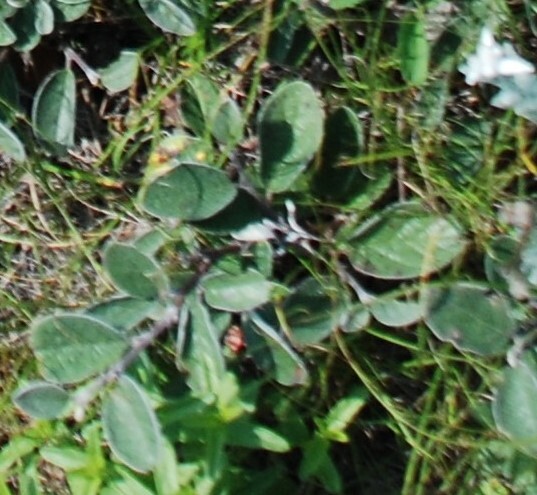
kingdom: Plantae
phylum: Tracheophyta
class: Magnoliopsida
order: Rosales
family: Rosaceae
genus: Cotoneaster
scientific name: Cotoneaster melanocarpus
